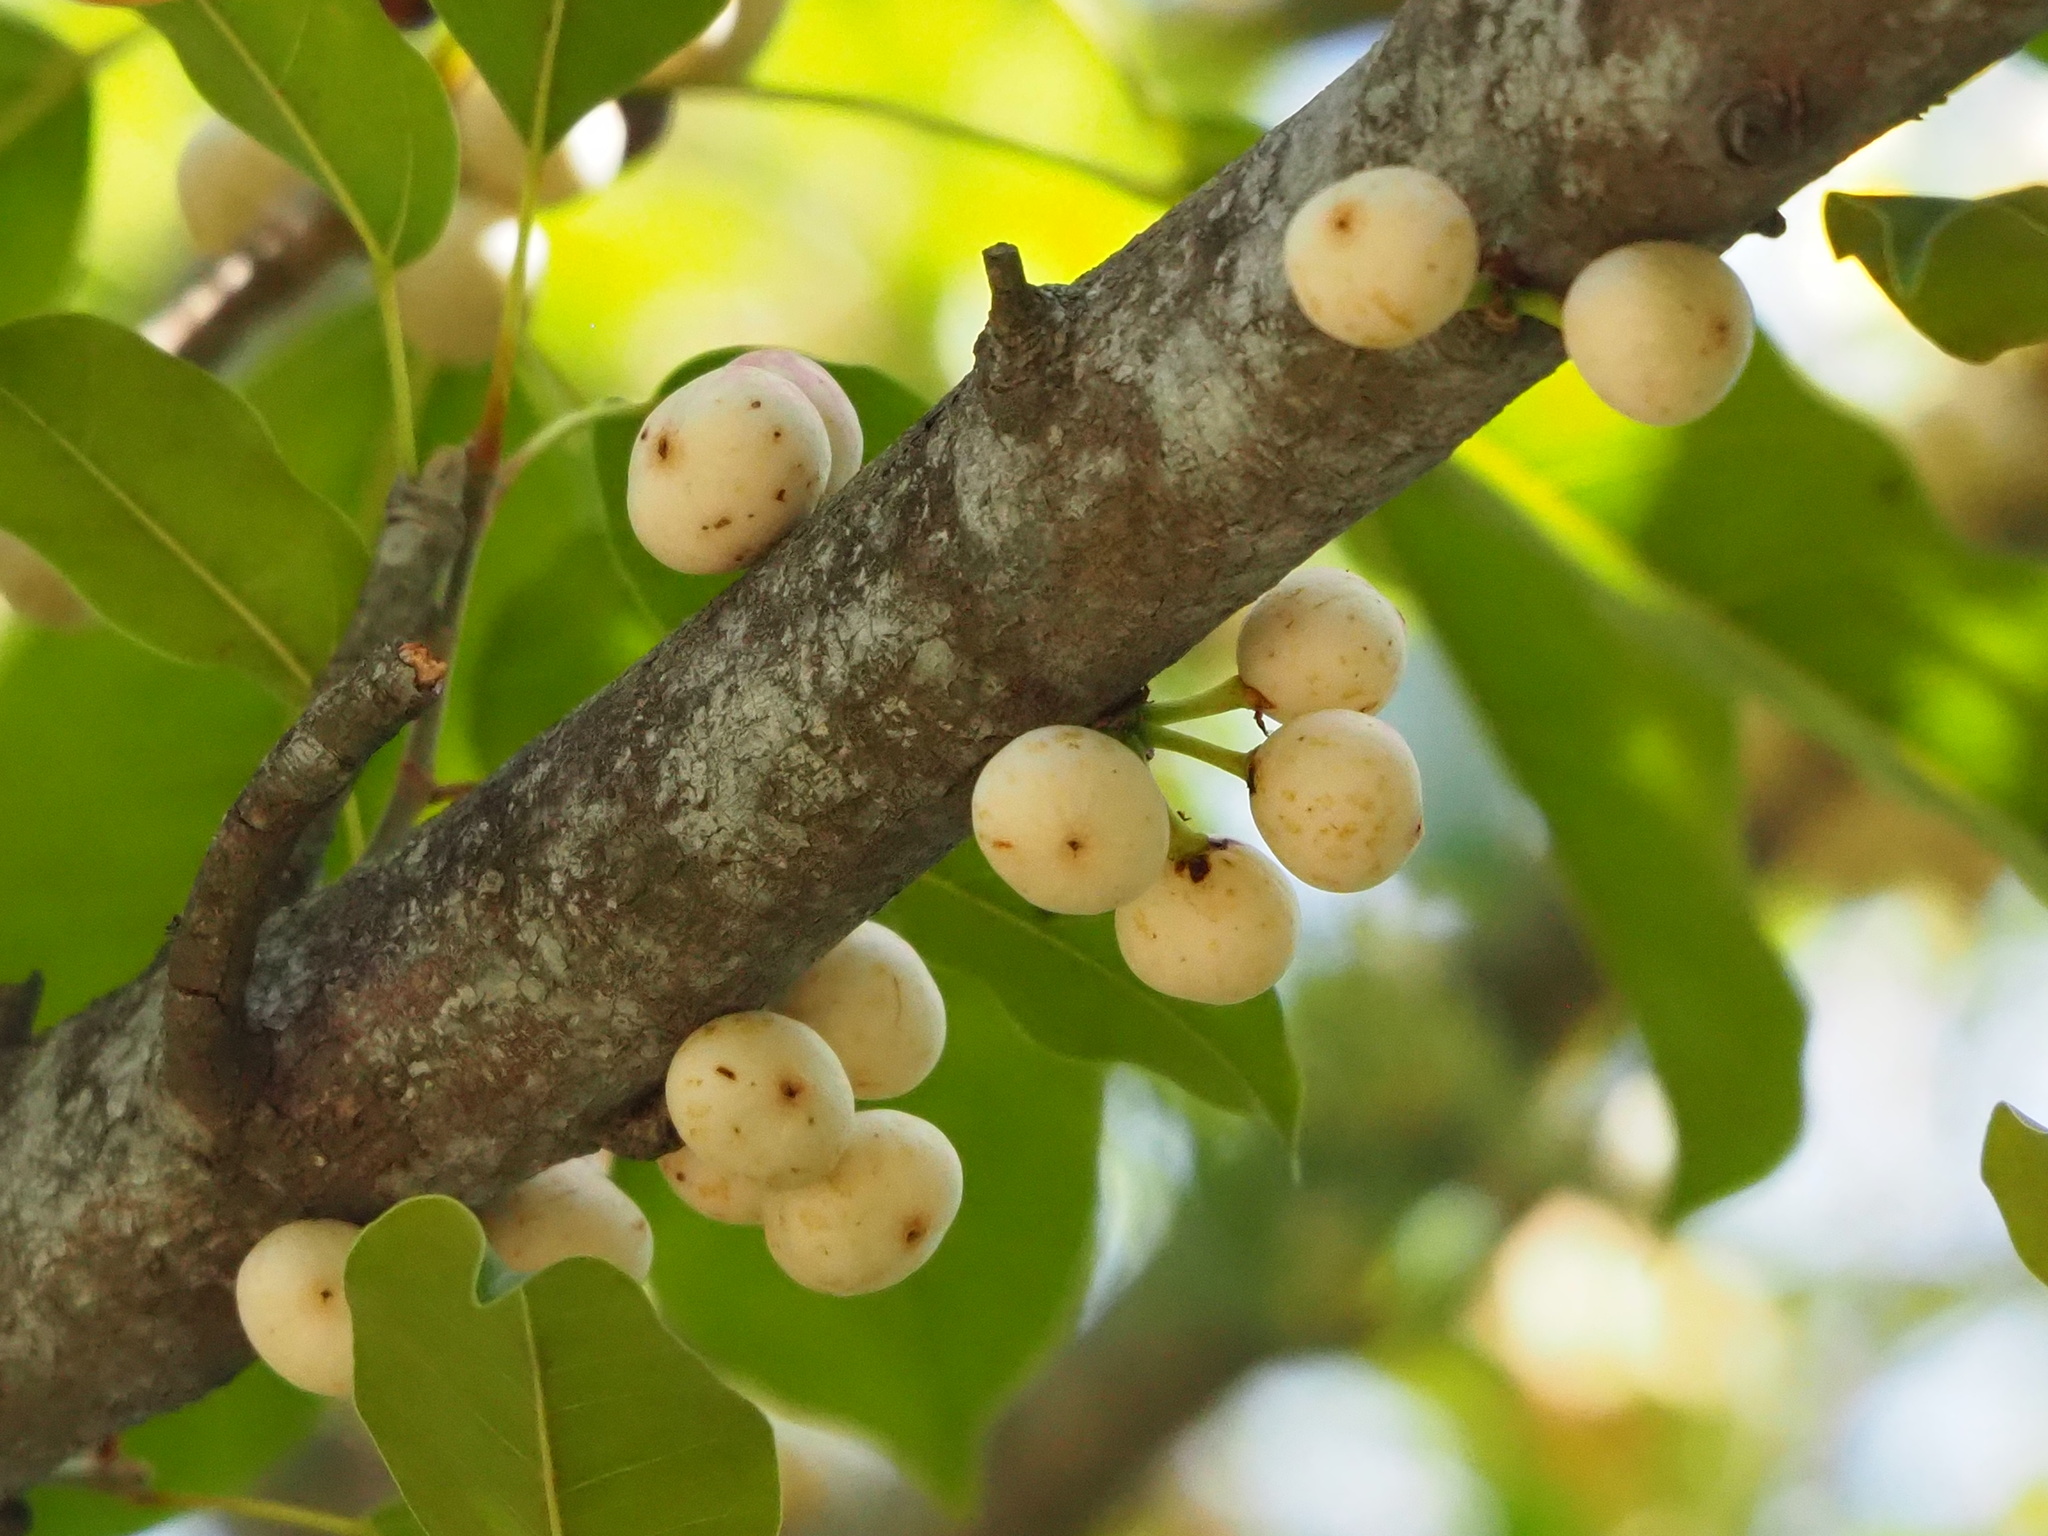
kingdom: Plantae
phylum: Tracheophyta
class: Magnoliopsida
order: Rosales
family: Moraceae
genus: Ficus
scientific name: Ficus subpisocarpa
